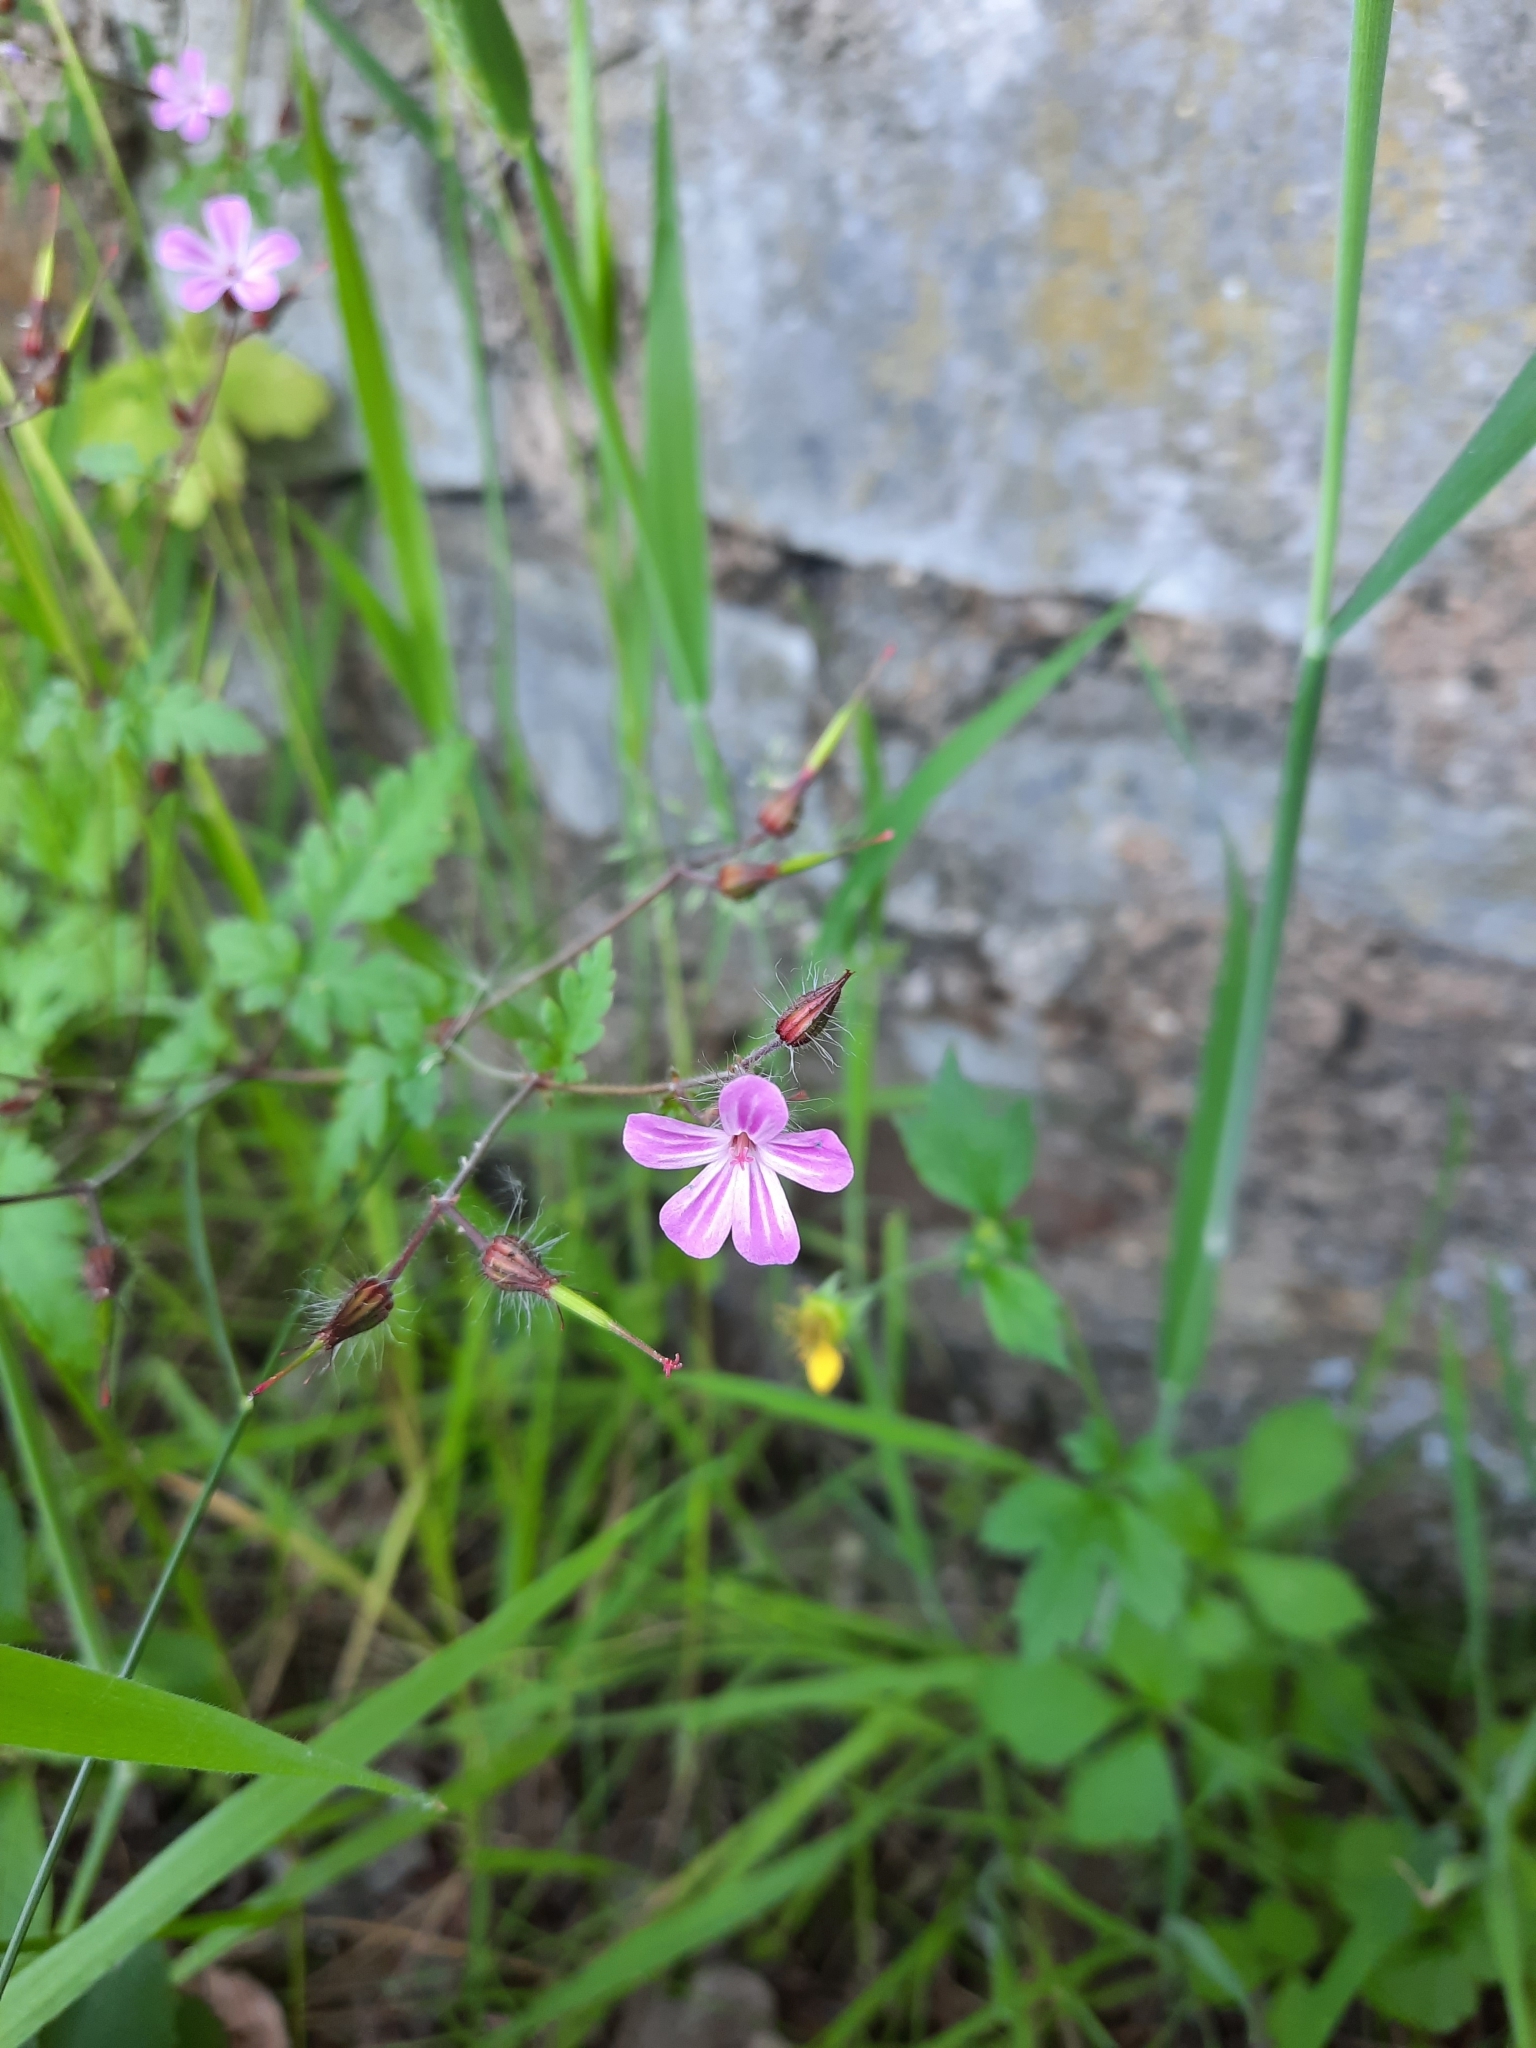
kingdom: Plantae
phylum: Tracheophyta
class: Magnoliopsida
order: Geraniales
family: Geraniaceae
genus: Geranium
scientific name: Geranium robertianum
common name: Herb-robert
